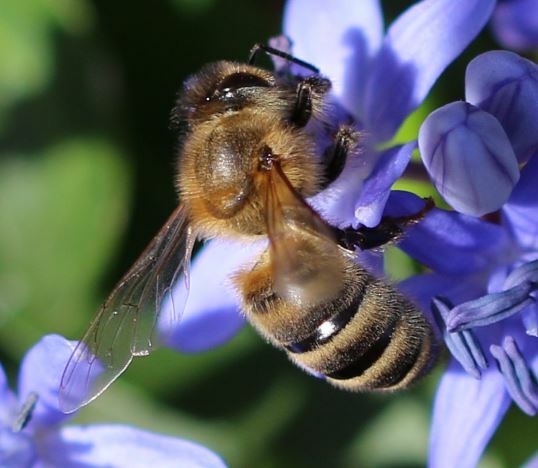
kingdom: Animalia
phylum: Arthropoda
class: Insecta
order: Hymenoptera
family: Apidae
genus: Apis
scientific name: Apis mellifera
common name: Honey bee
